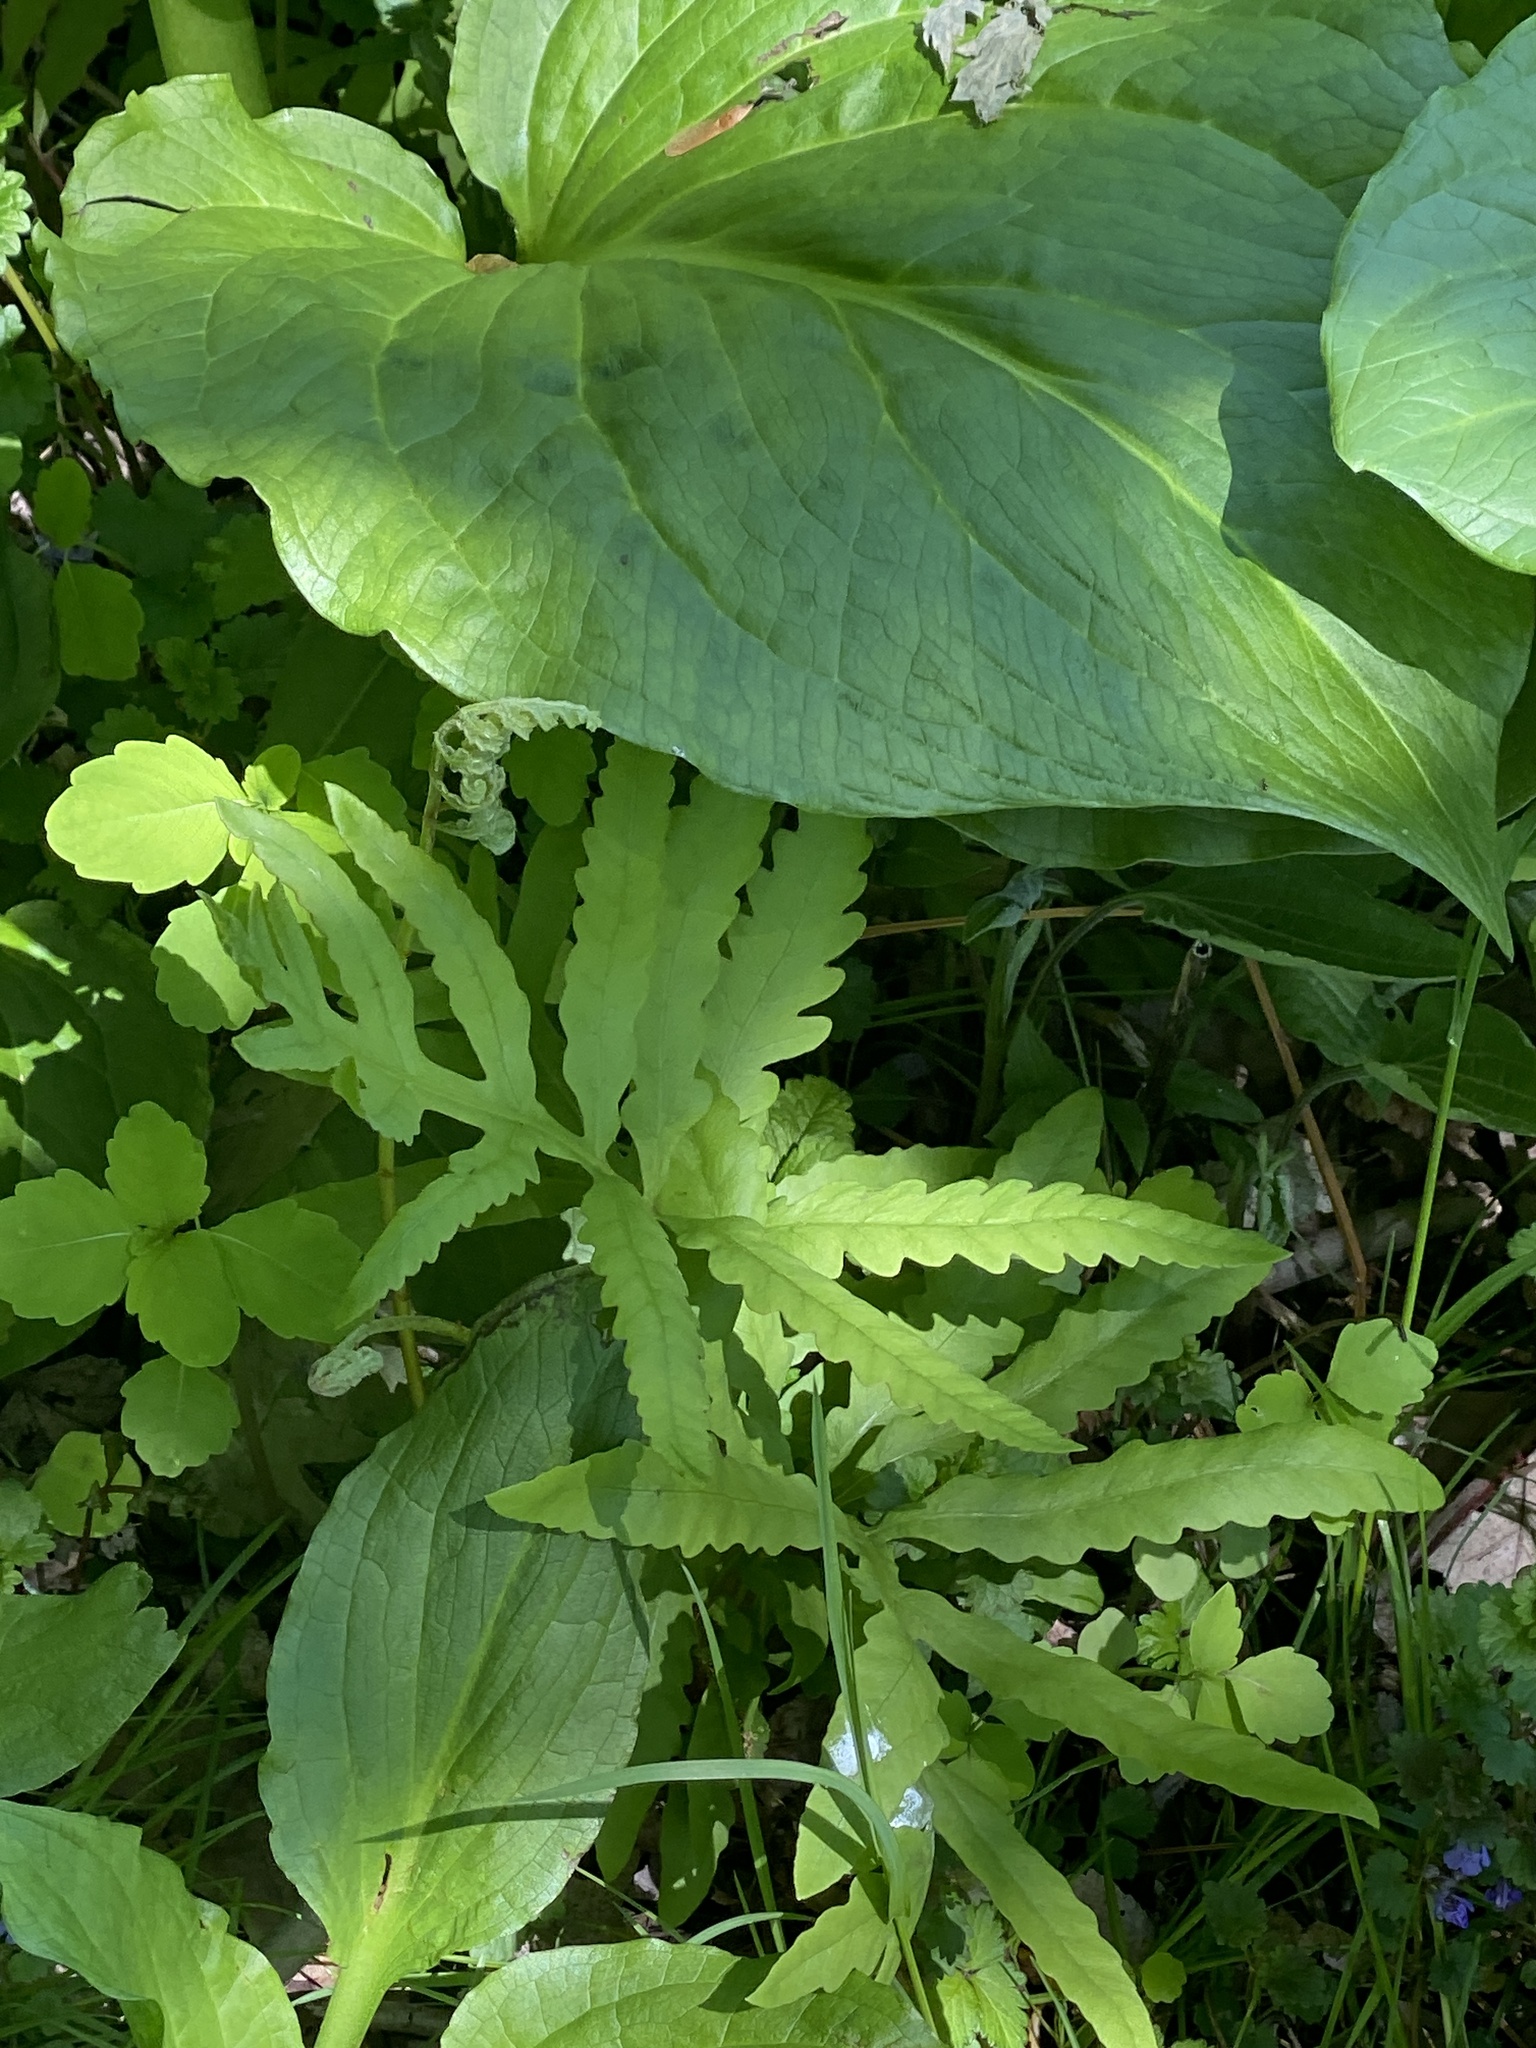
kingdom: Plantae
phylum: Tracheophyta
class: Polypodiopsida
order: Polypodiales
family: Onocleaceae
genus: Onoclea
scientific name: Onoclea sensibilis
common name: Sensitive fern
